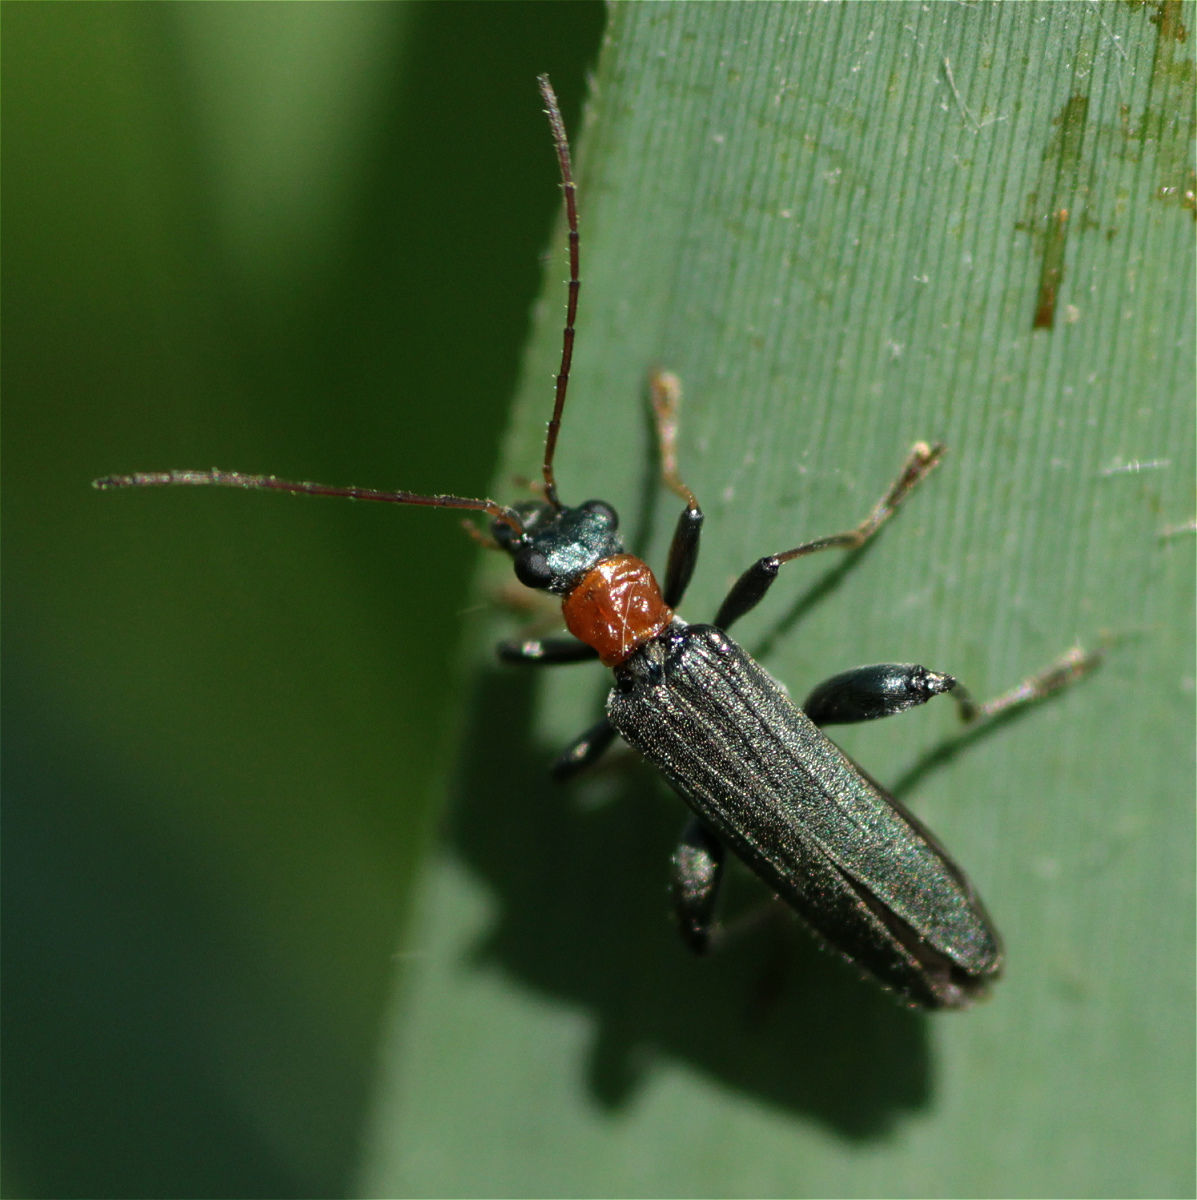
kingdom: Animalia
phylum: Arthropoda
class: Insecta
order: Coleoptera
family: Oedemeridae
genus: Oedemera
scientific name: Oedemera croceicollis
